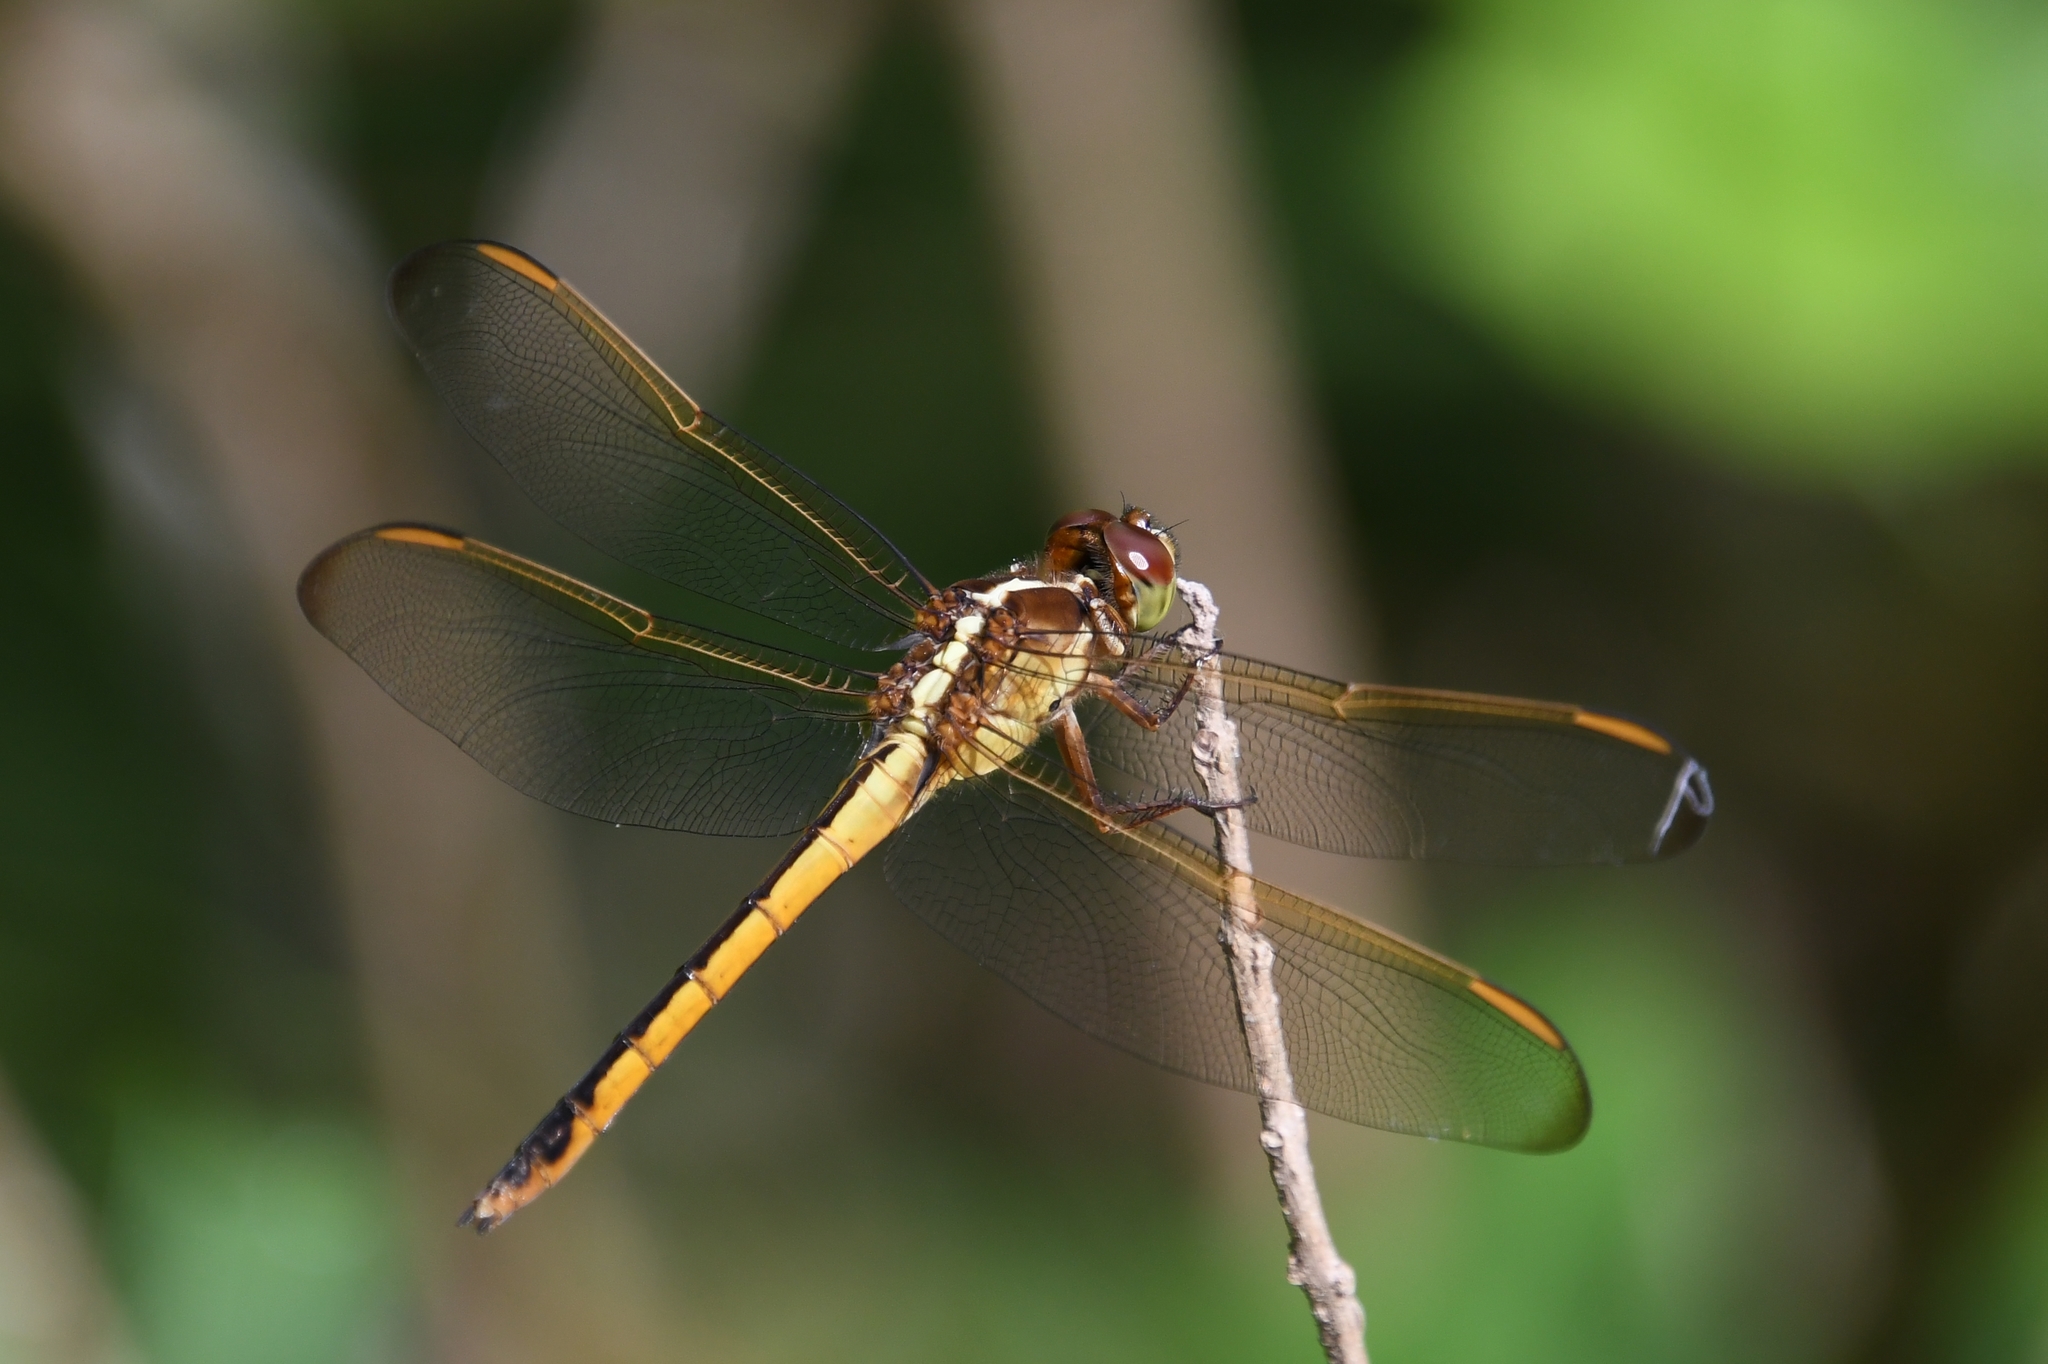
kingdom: Animalia
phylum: Arthropoda
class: Insecta
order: Odonata
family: Libellulidae
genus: Libellula
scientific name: Libellula needhami
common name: Needham's skimmer
